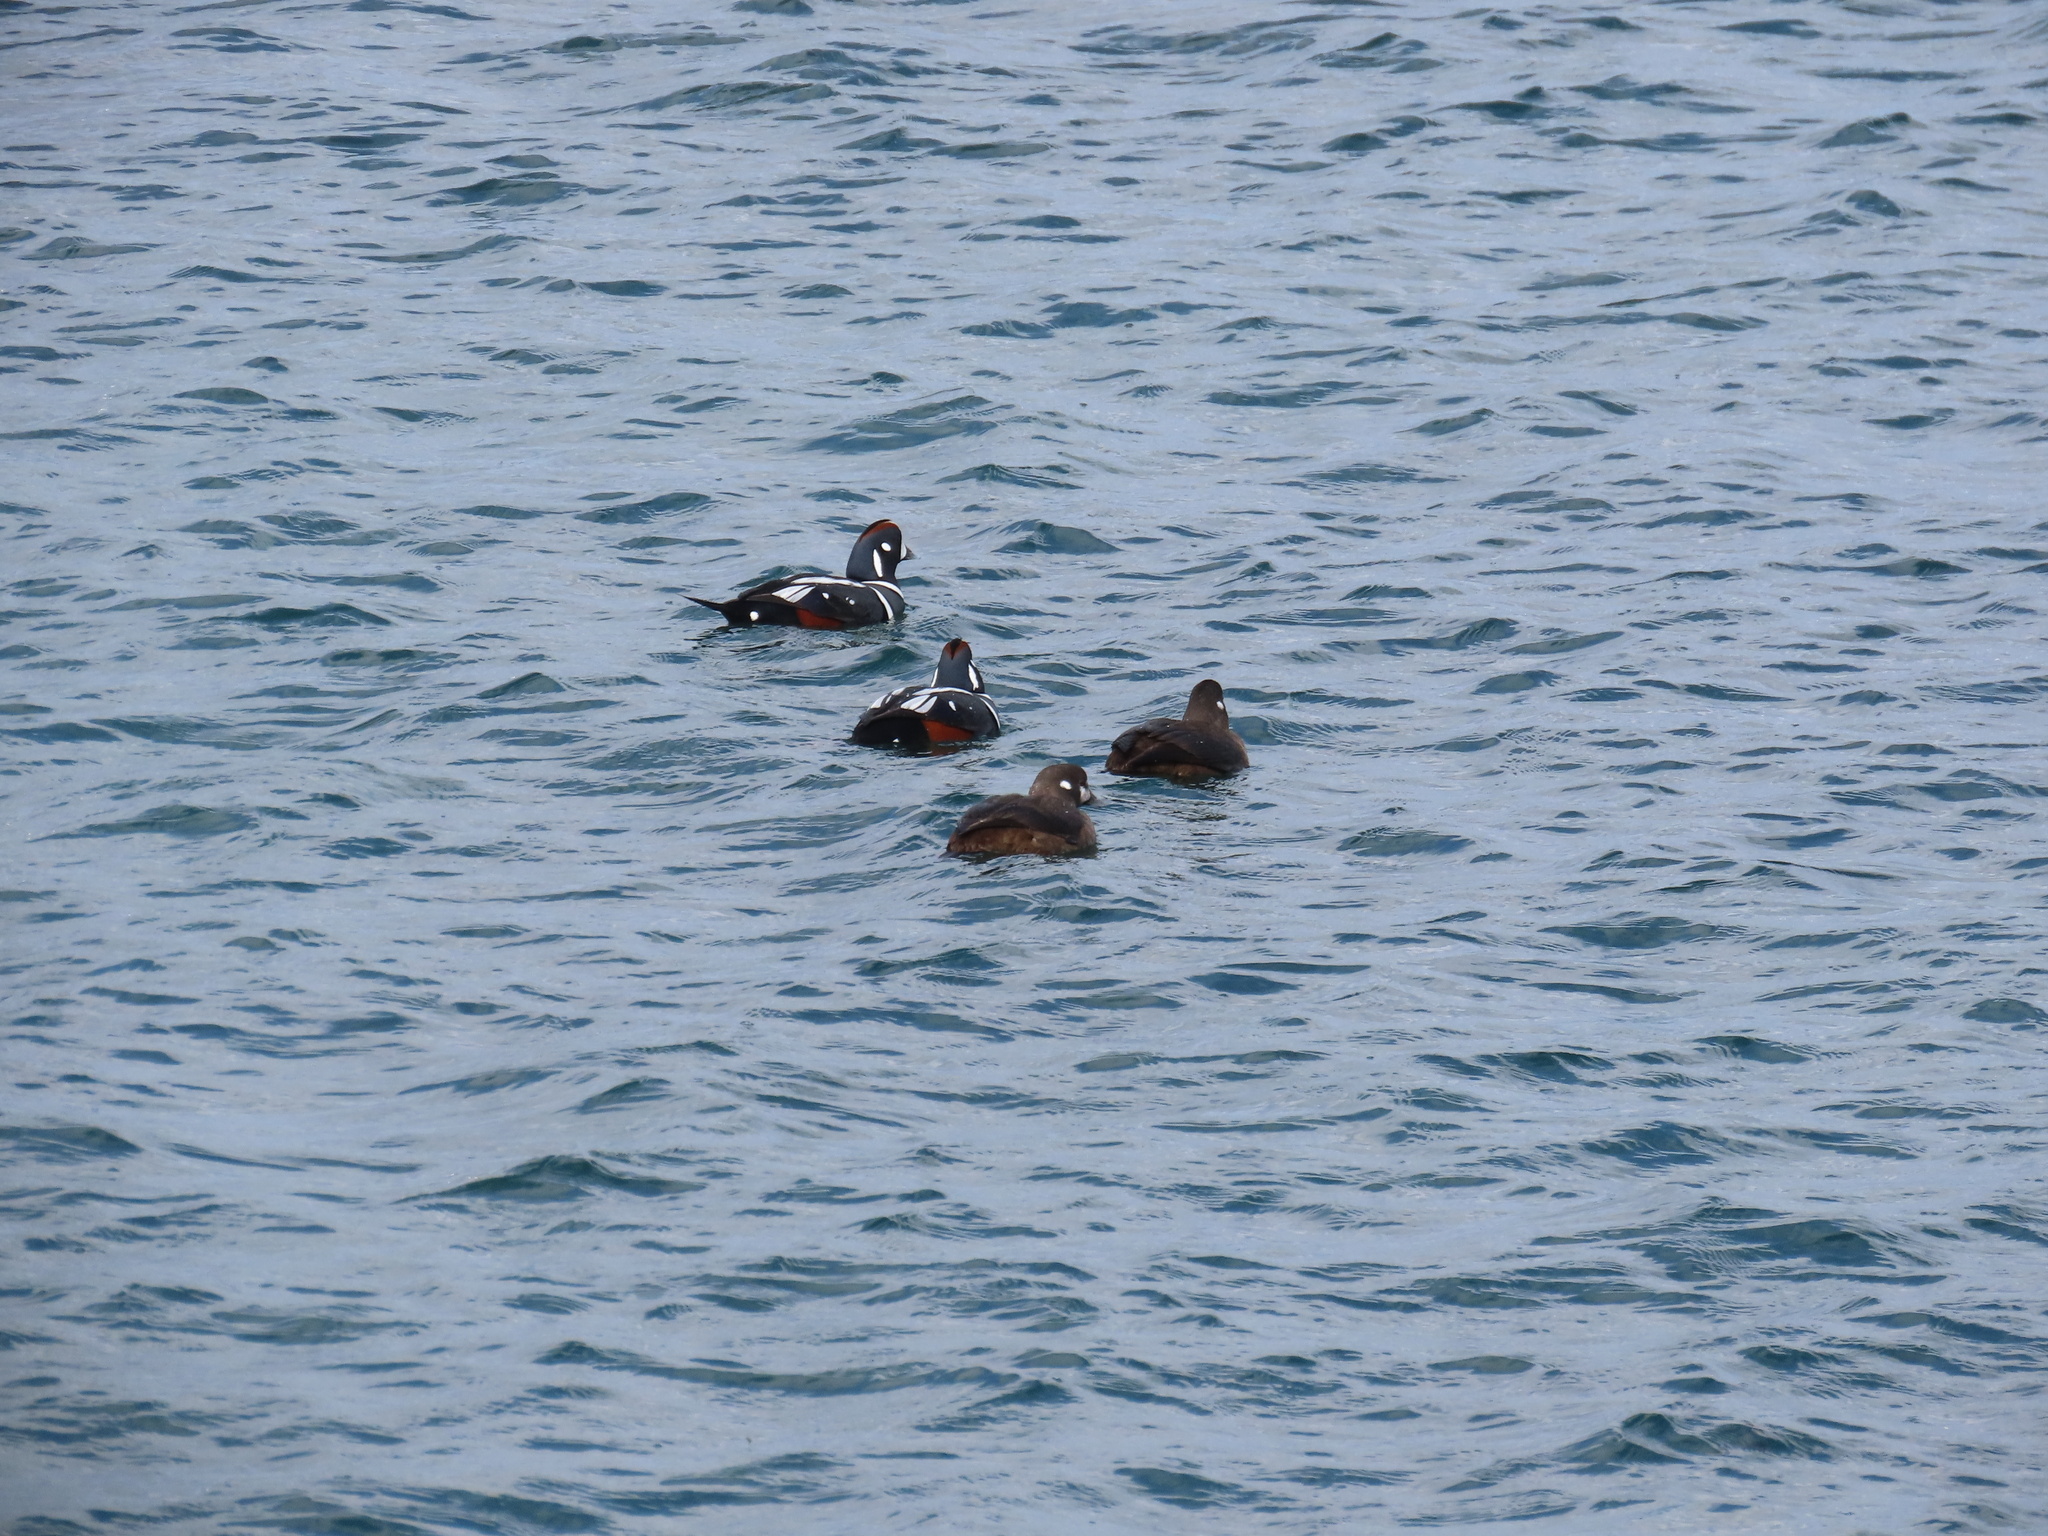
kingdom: Animalia
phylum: Chordata
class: Aves
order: Anseriformes
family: Anatidae
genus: Histrionicus
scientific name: Histrionicus histrionicus
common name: Harlequin duck
